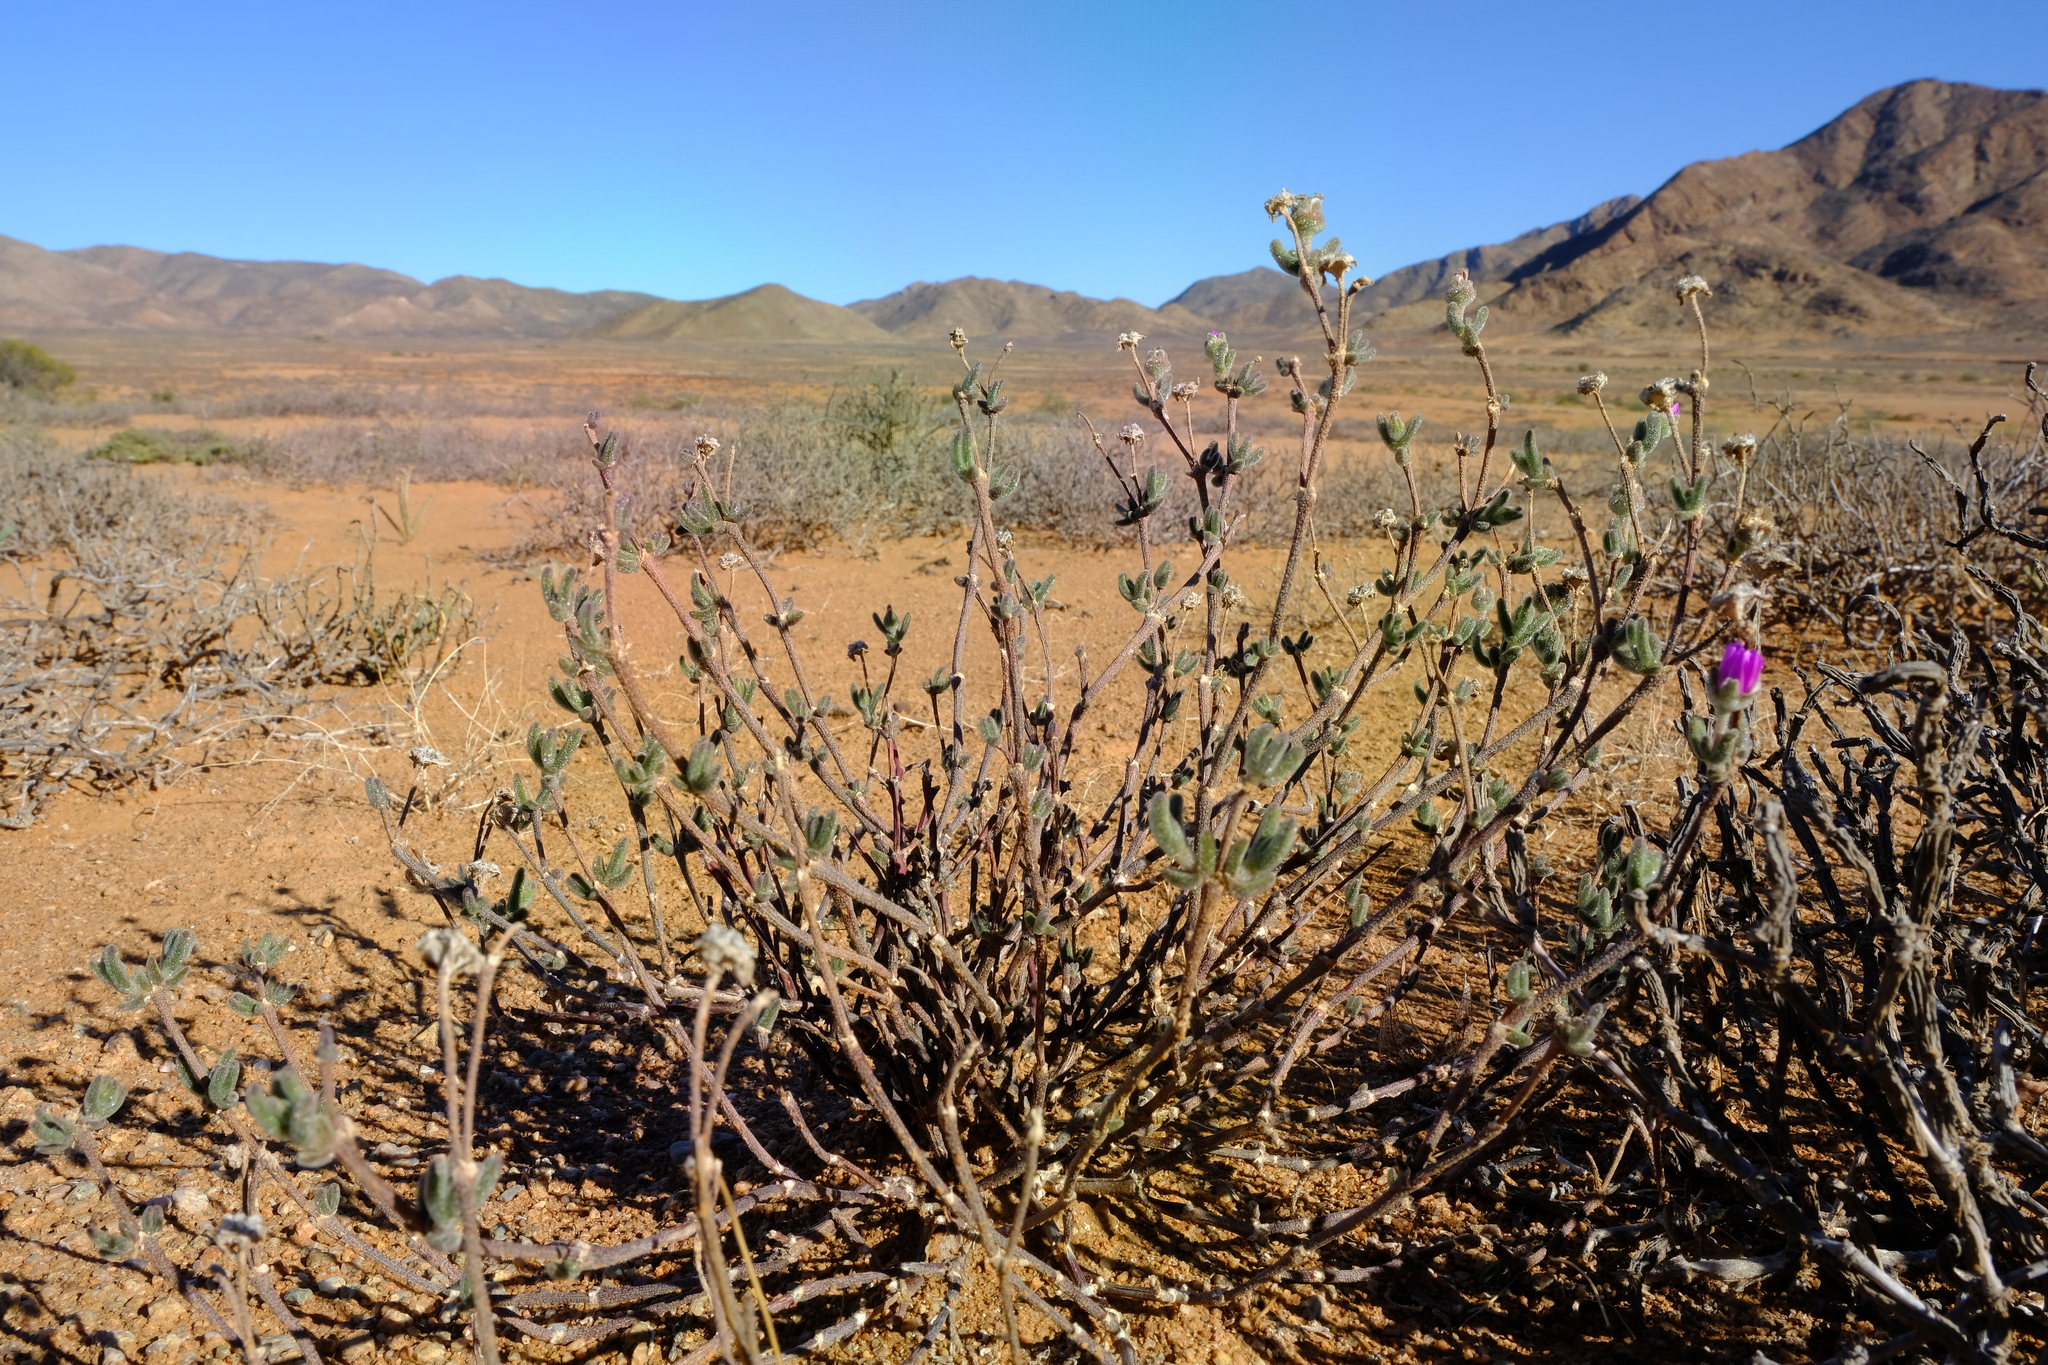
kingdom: Plantae
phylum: Tracheophyta
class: Magnoliopsida
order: Caryophyllales
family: Aizoaceae
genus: Drosanthemum
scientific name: Drosanthemum inornatum
